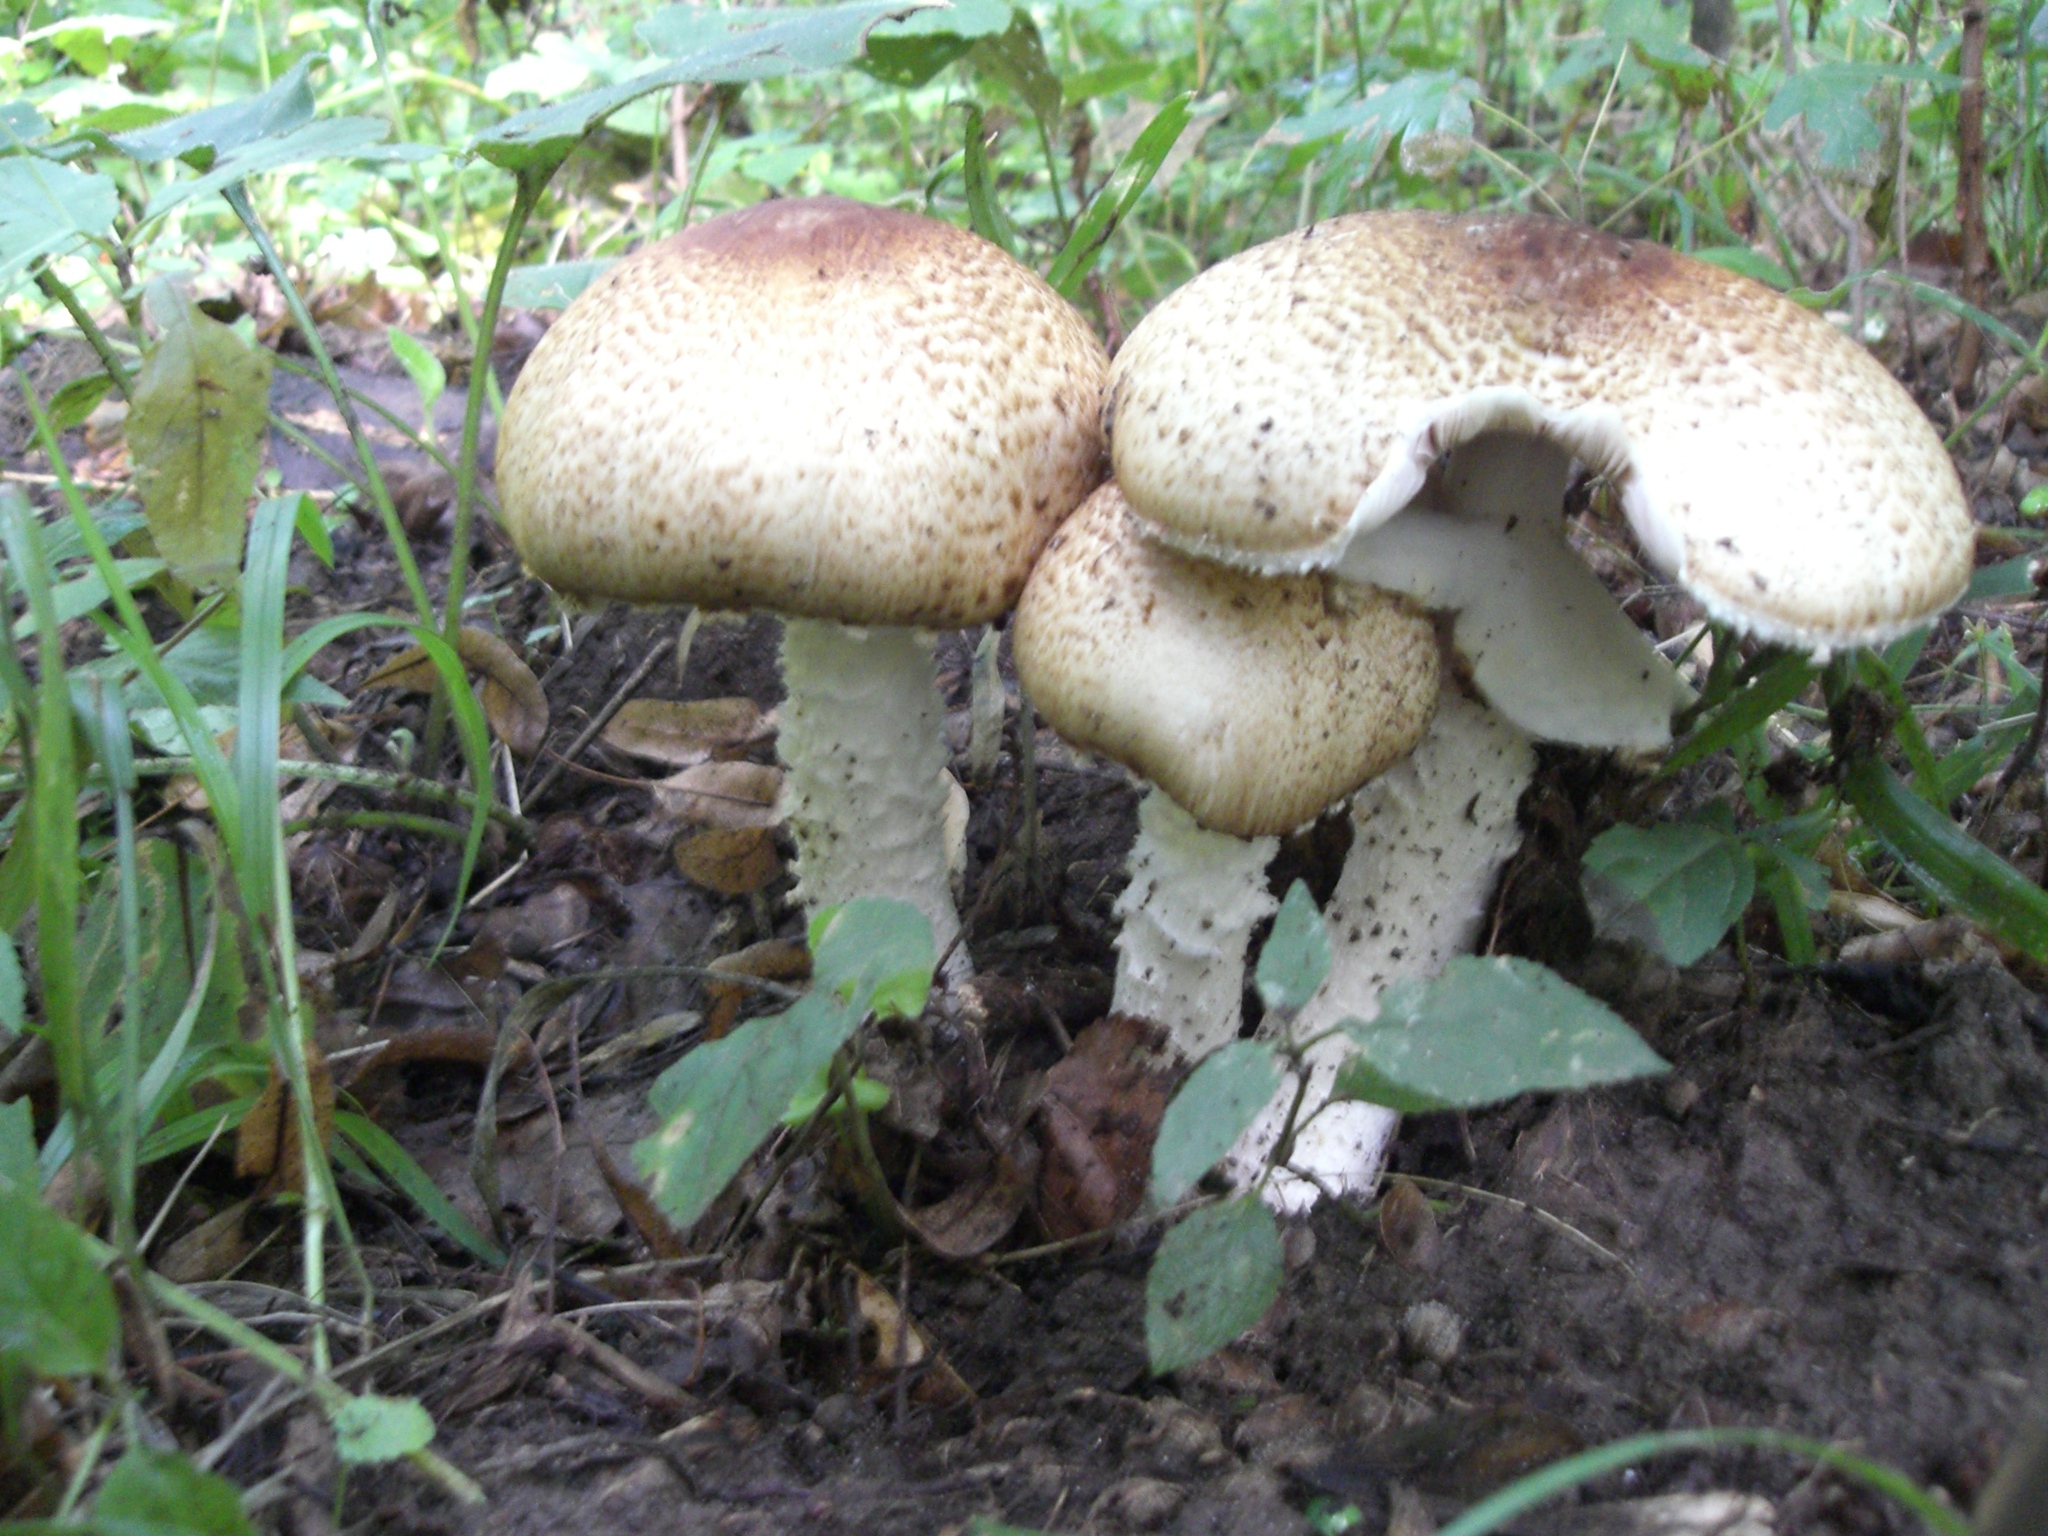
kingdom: Fungi
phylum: Basidiomycota
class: Agaricomycetes
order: Agaricales
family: Agaricaceae
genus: Agaricus
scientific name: Agaricus augustus
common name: Prince
